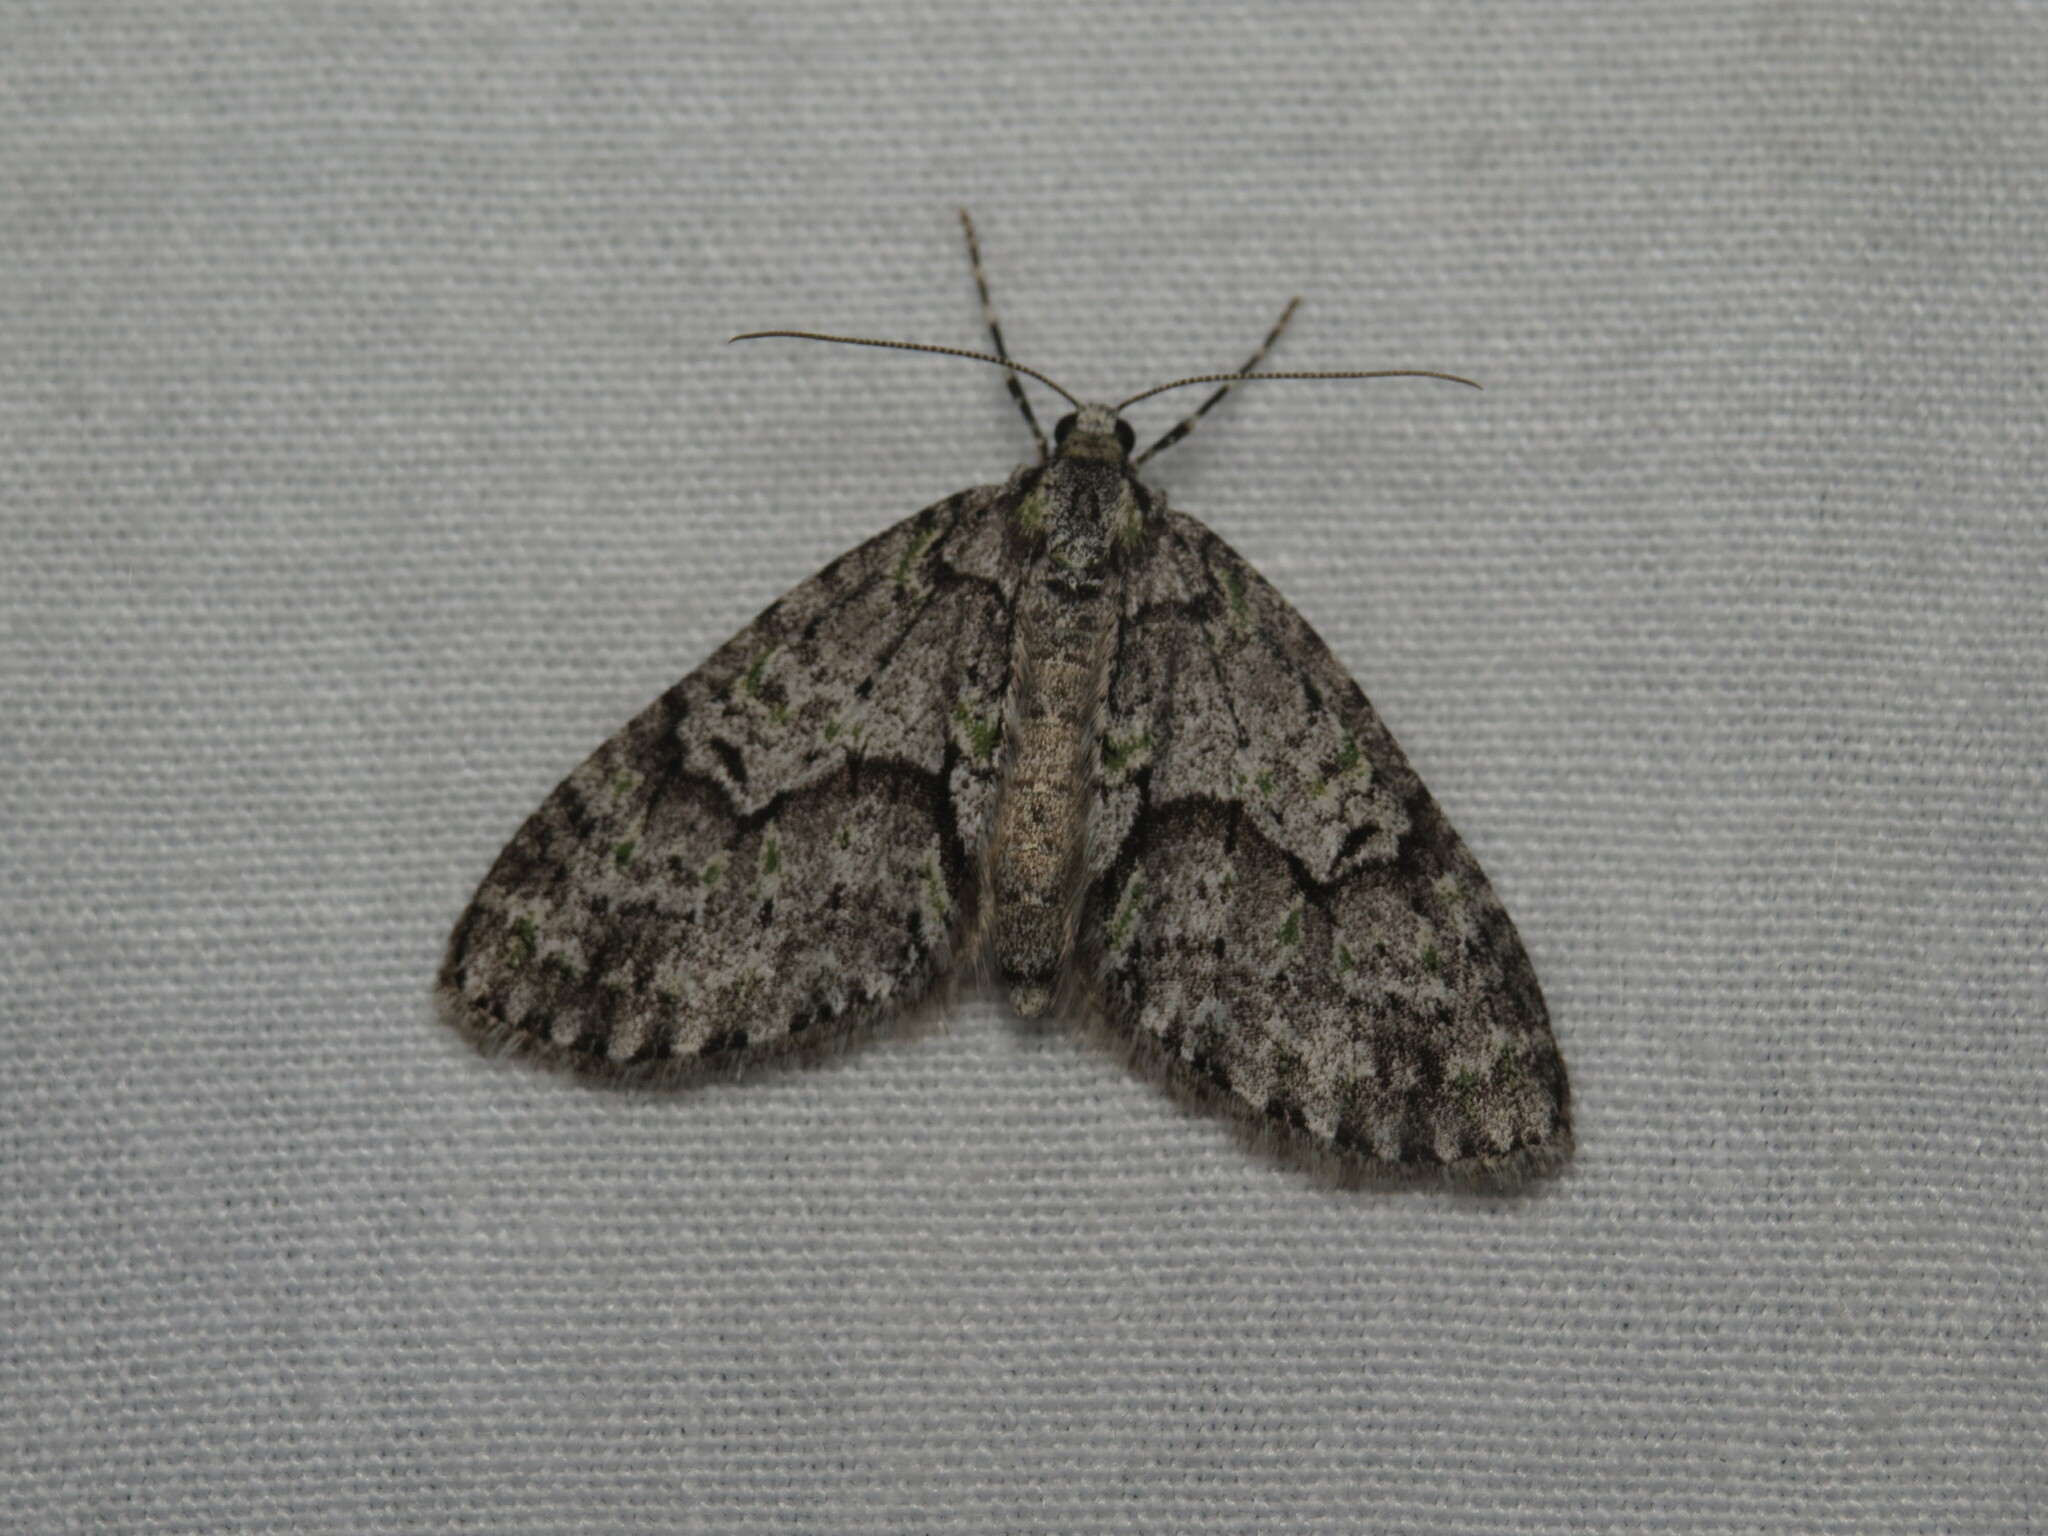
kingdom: Animalia
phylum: Arthropoda
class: Insecta
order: Lepidoptera
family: Geometridae
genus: Cladara
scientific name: Cladara limitaria
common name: Mottled gray carpet
